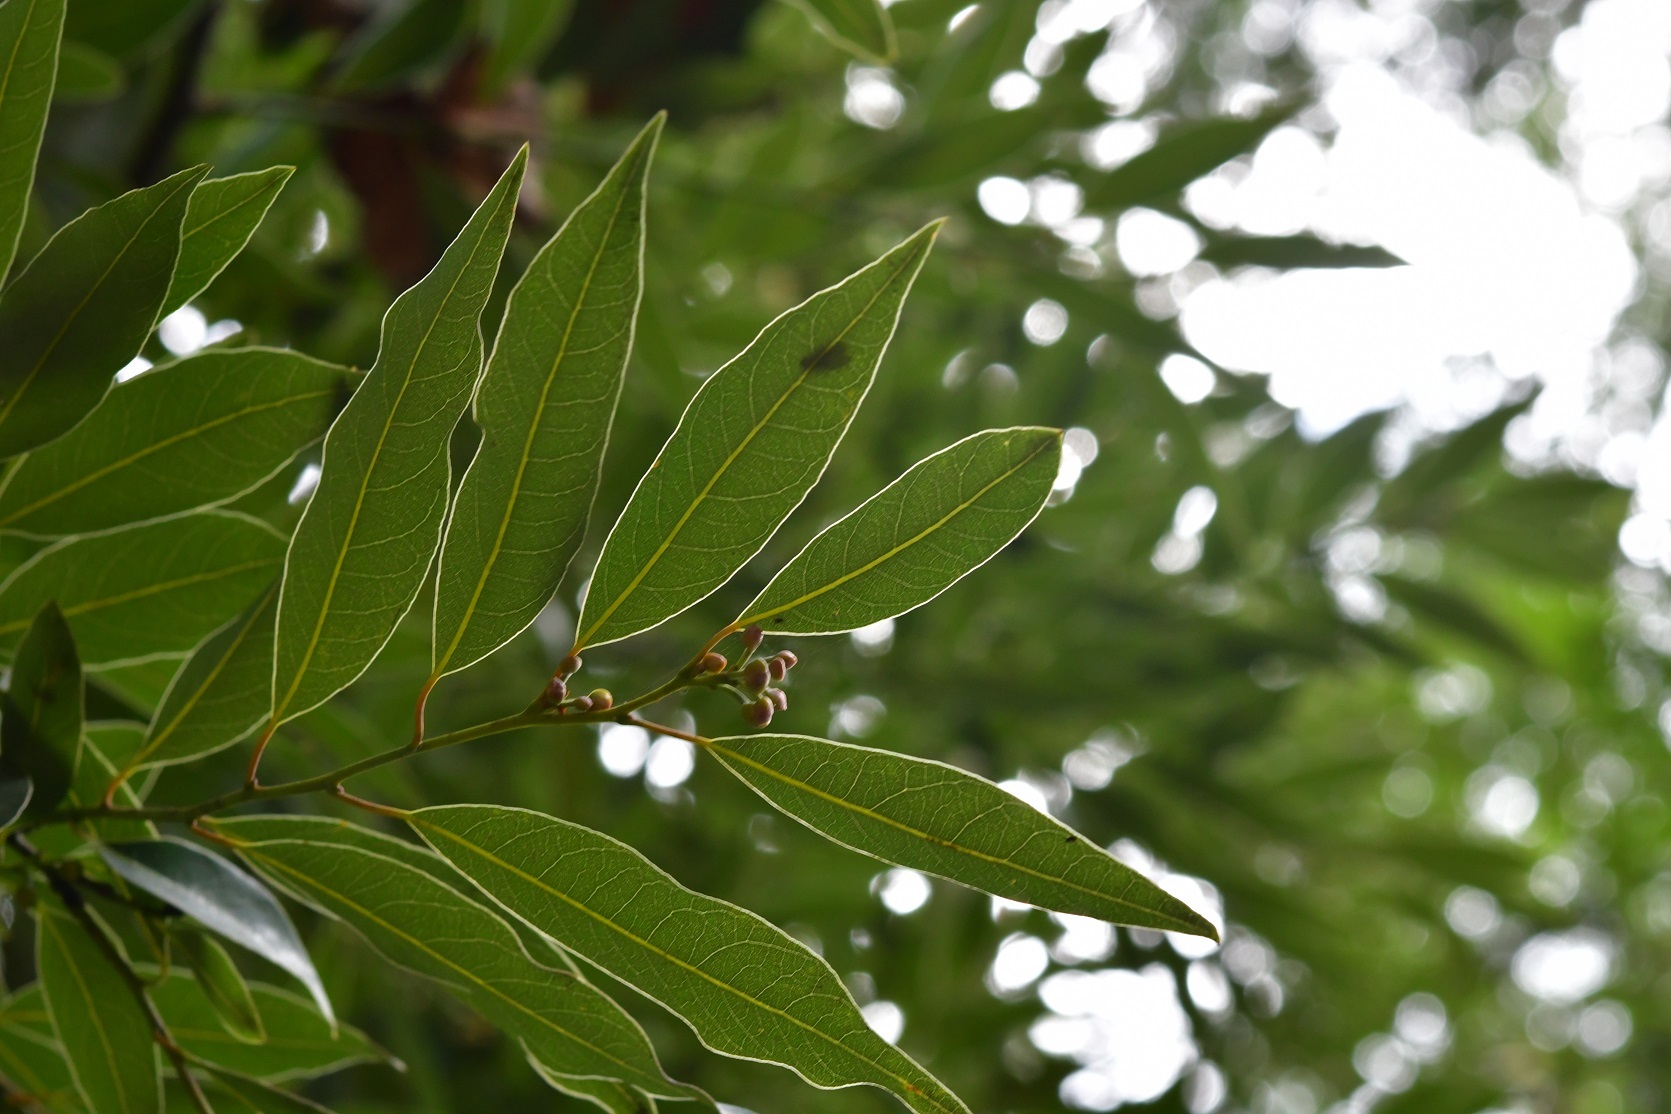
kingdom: Plantae
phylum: Tracheophyta
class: Magnoliopsida
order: Laurales
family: Lauraceae
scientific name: Lauraceae
